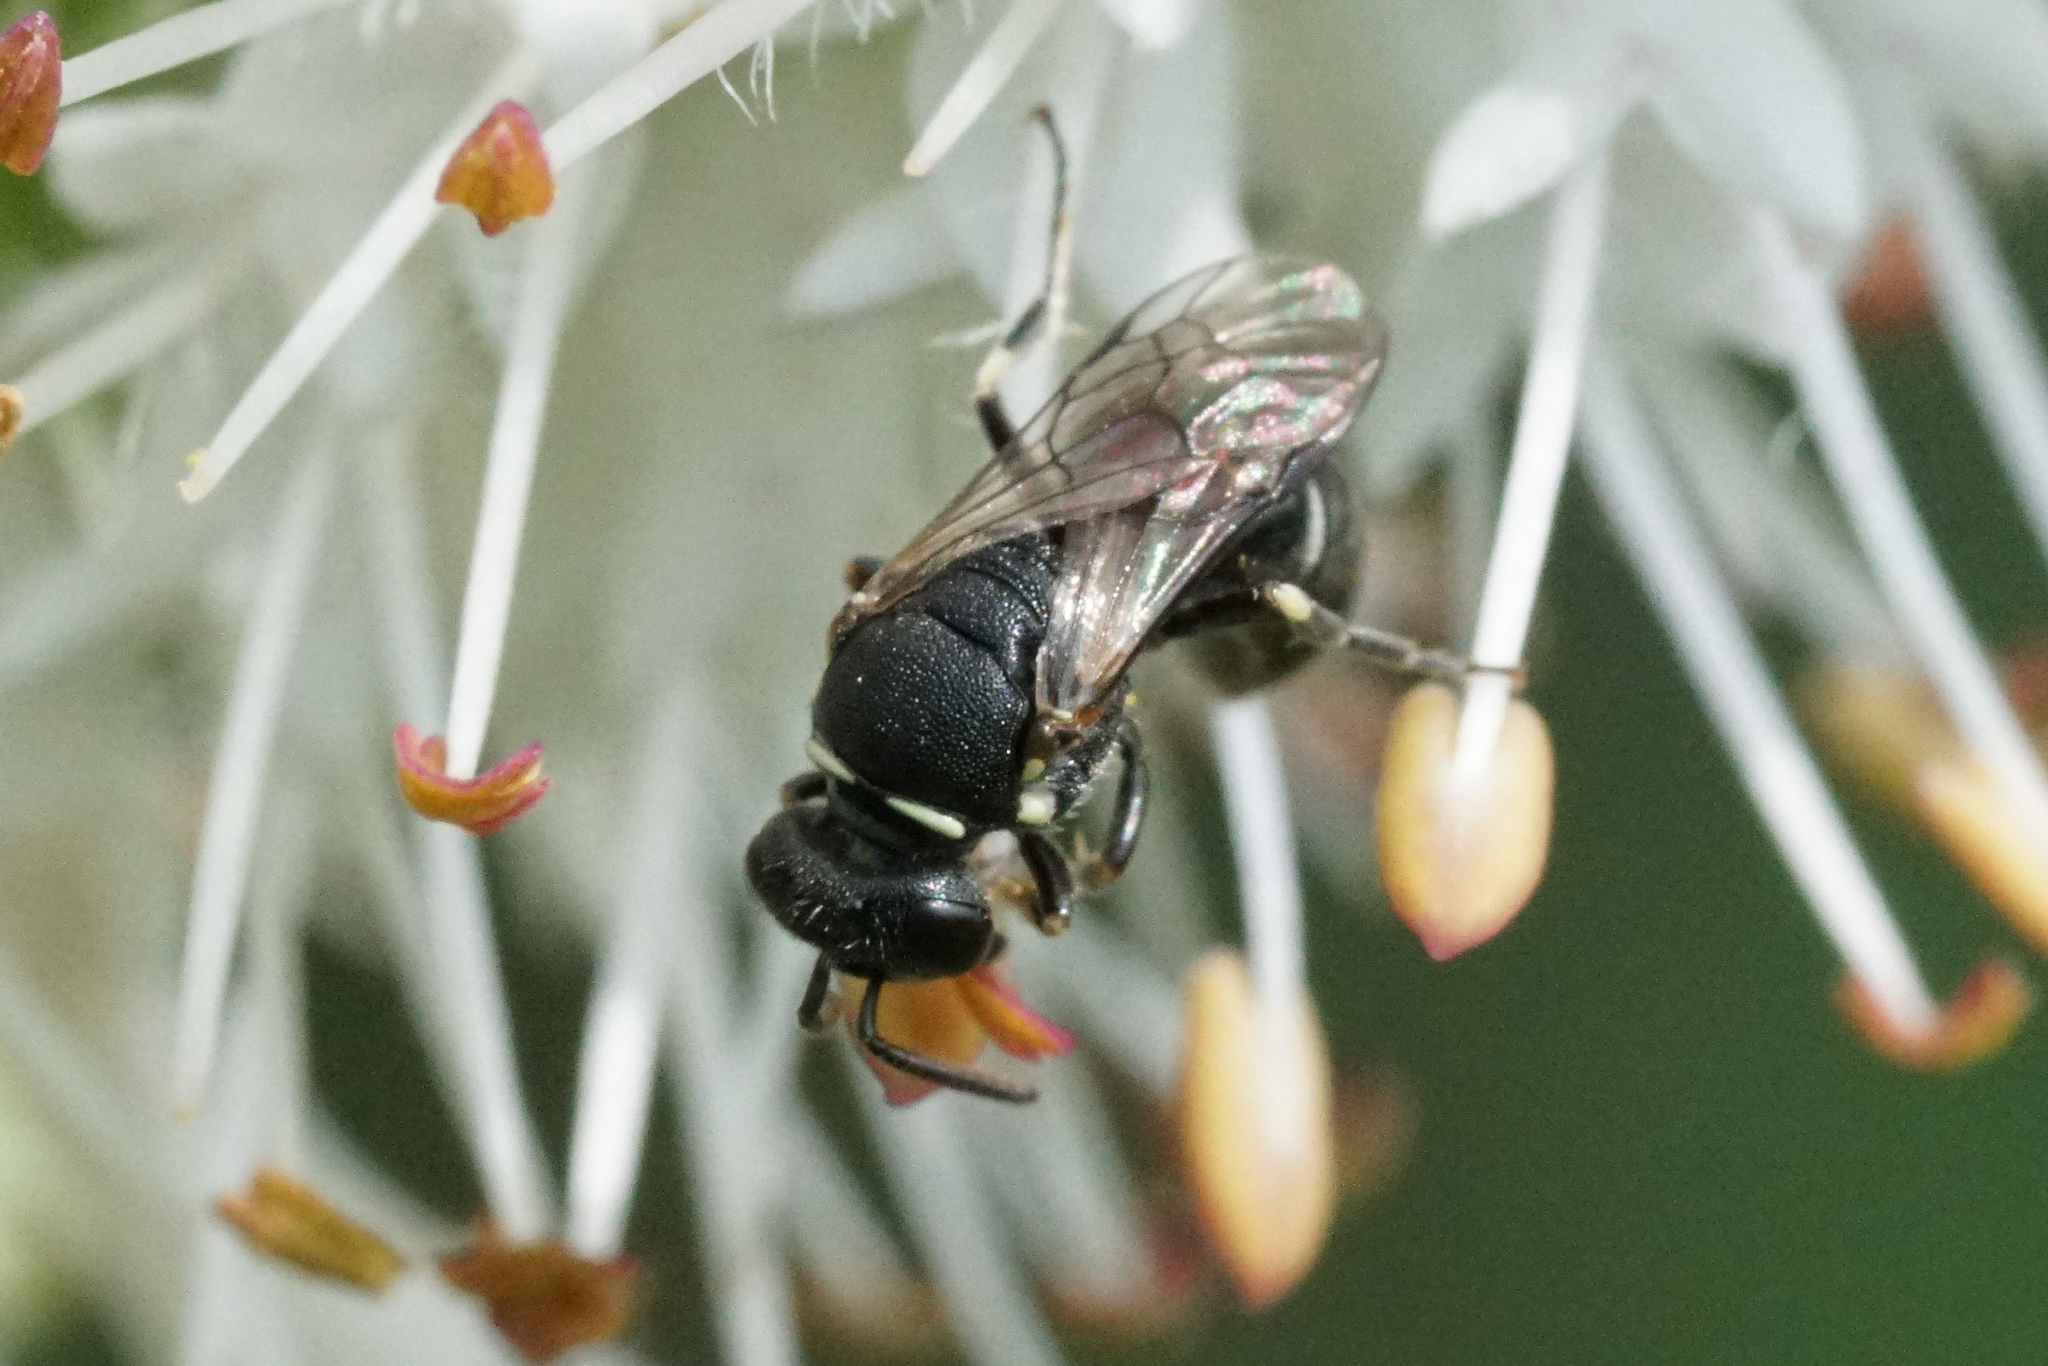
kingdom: Animalia
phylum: Arthropoda
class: Insecta
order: Hymenoptera
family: Colletidae
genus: Hylaeus
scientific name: Hylaeus
